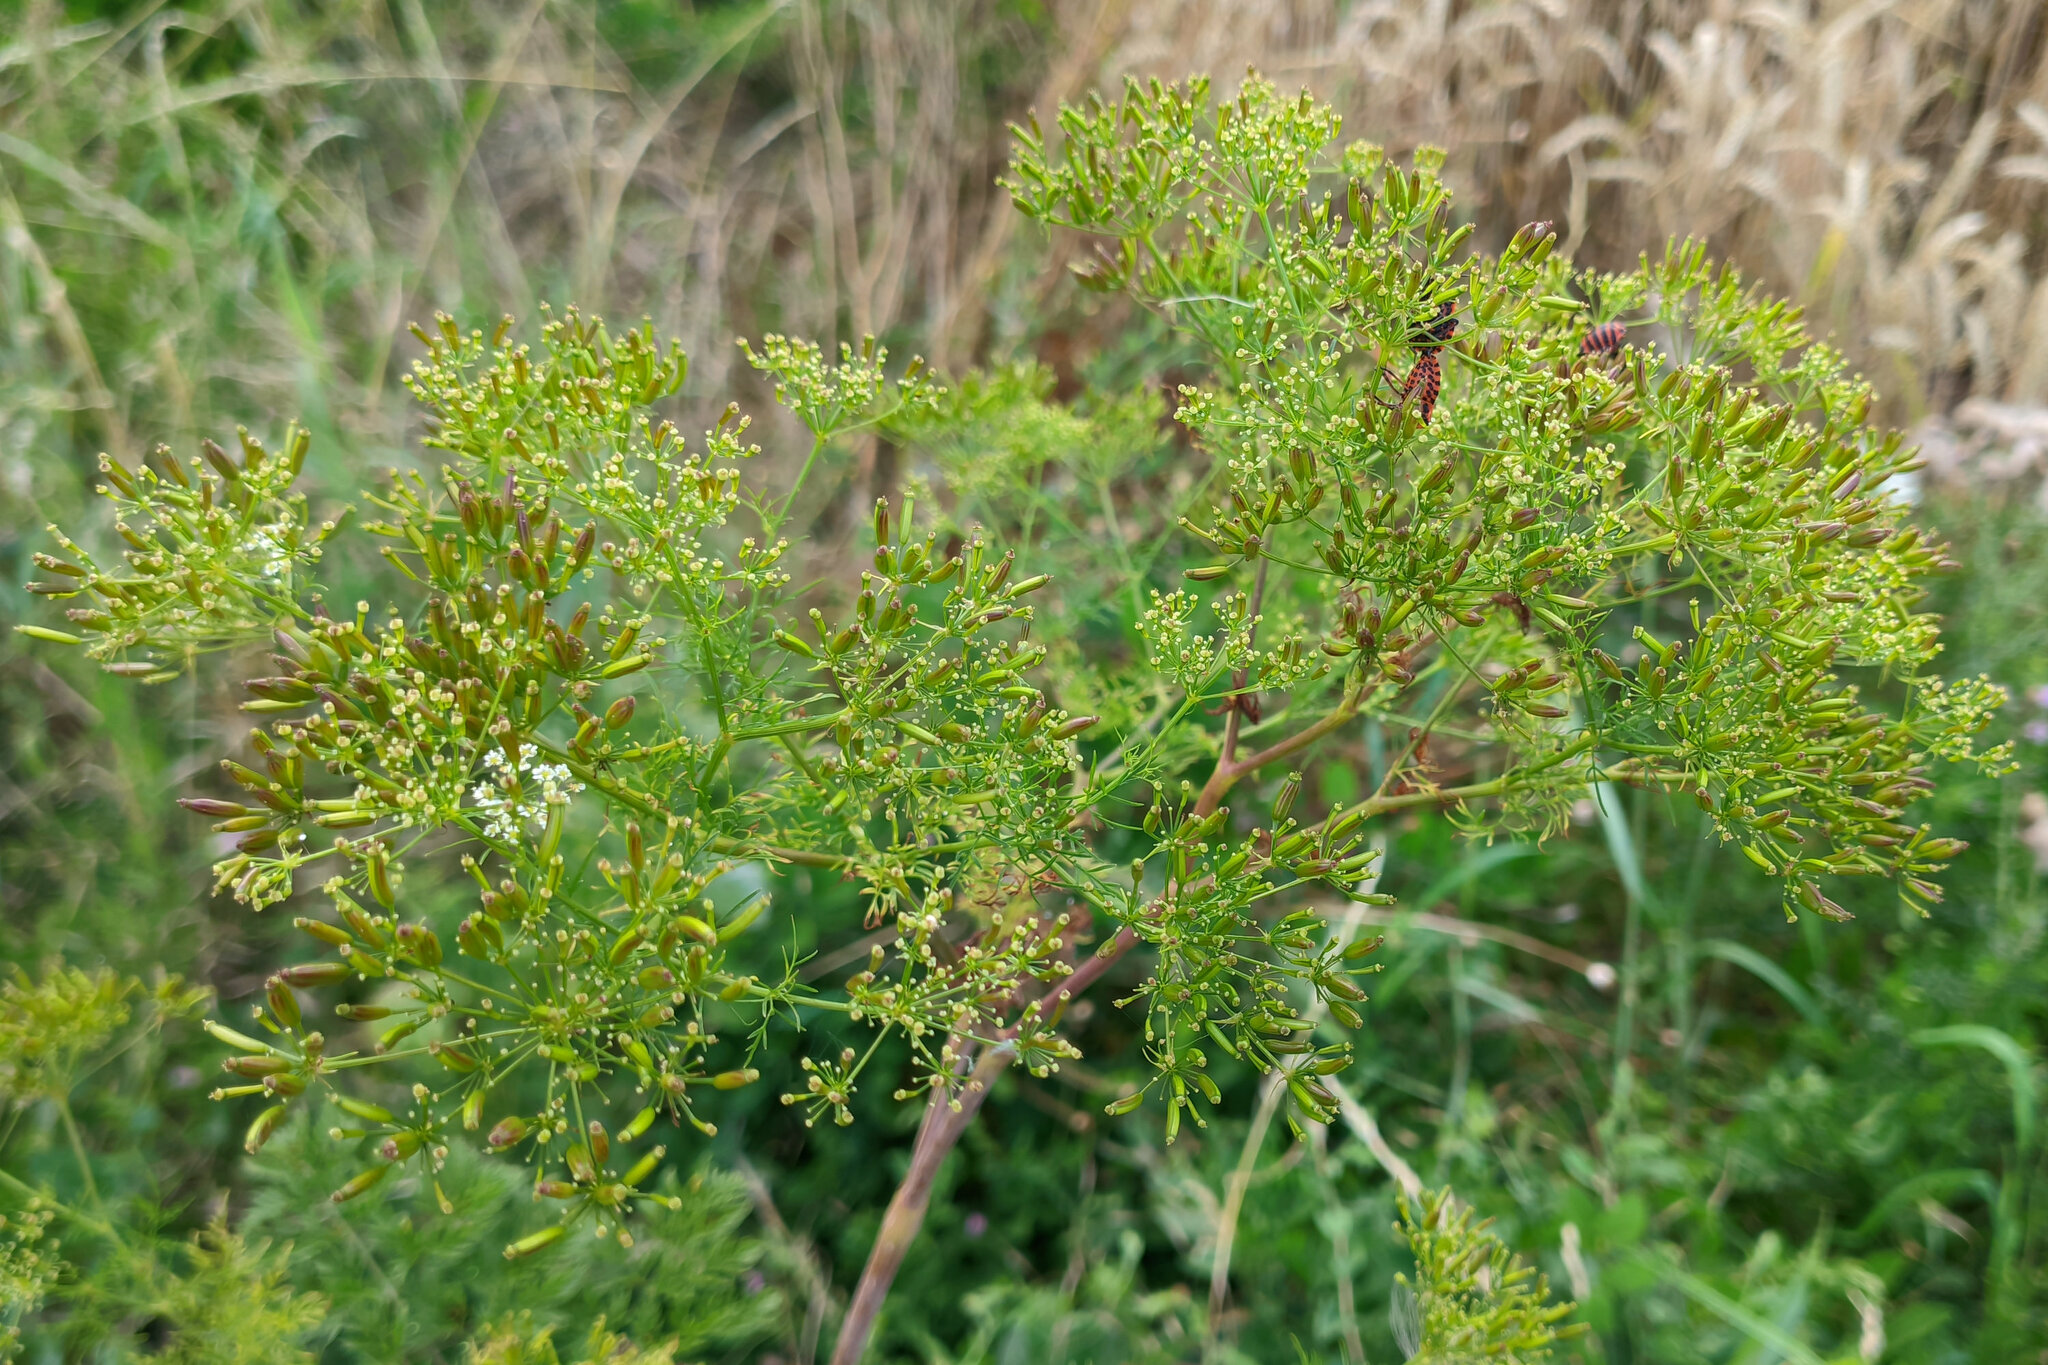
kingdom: Plantae
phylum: Tracheophyta
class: Magnoliopsida
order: Apiales
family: Apiaceae
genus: Chaerophyllum
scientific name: Chaerophyllum bulbosum
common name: Bulbous chervil
